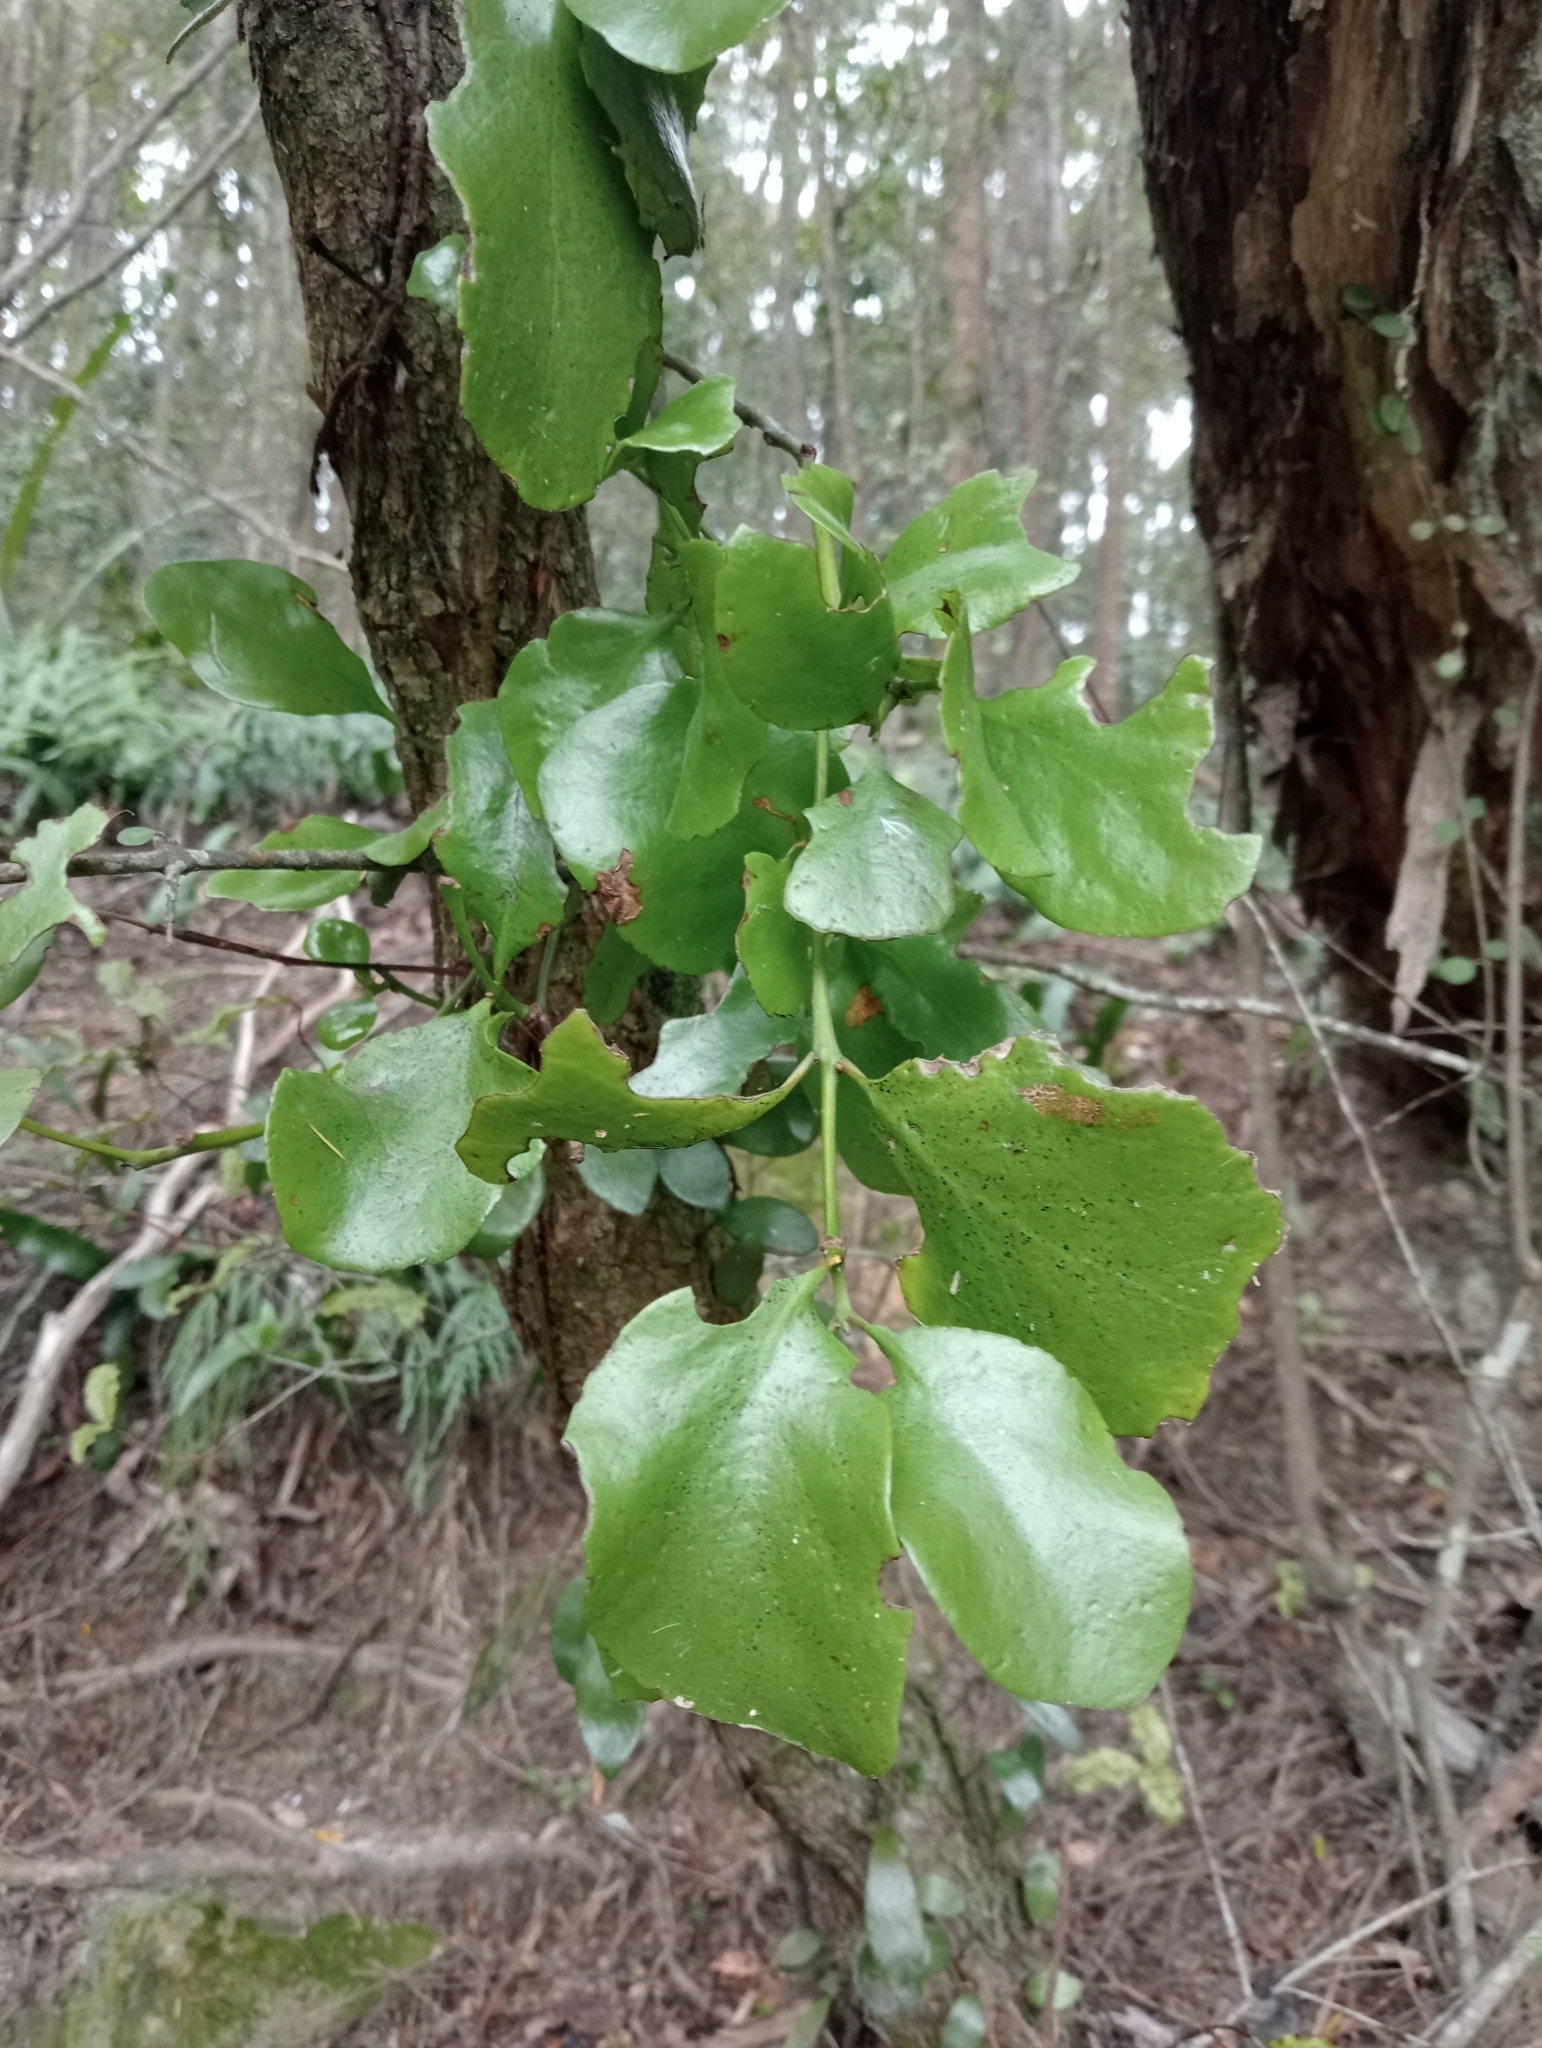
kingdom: Plantae
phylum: Tracheophyta
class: Magnoliopsida
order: Santalales
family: Loranthaceae
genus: Ileostylus
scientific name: Ileostylus micranthus
